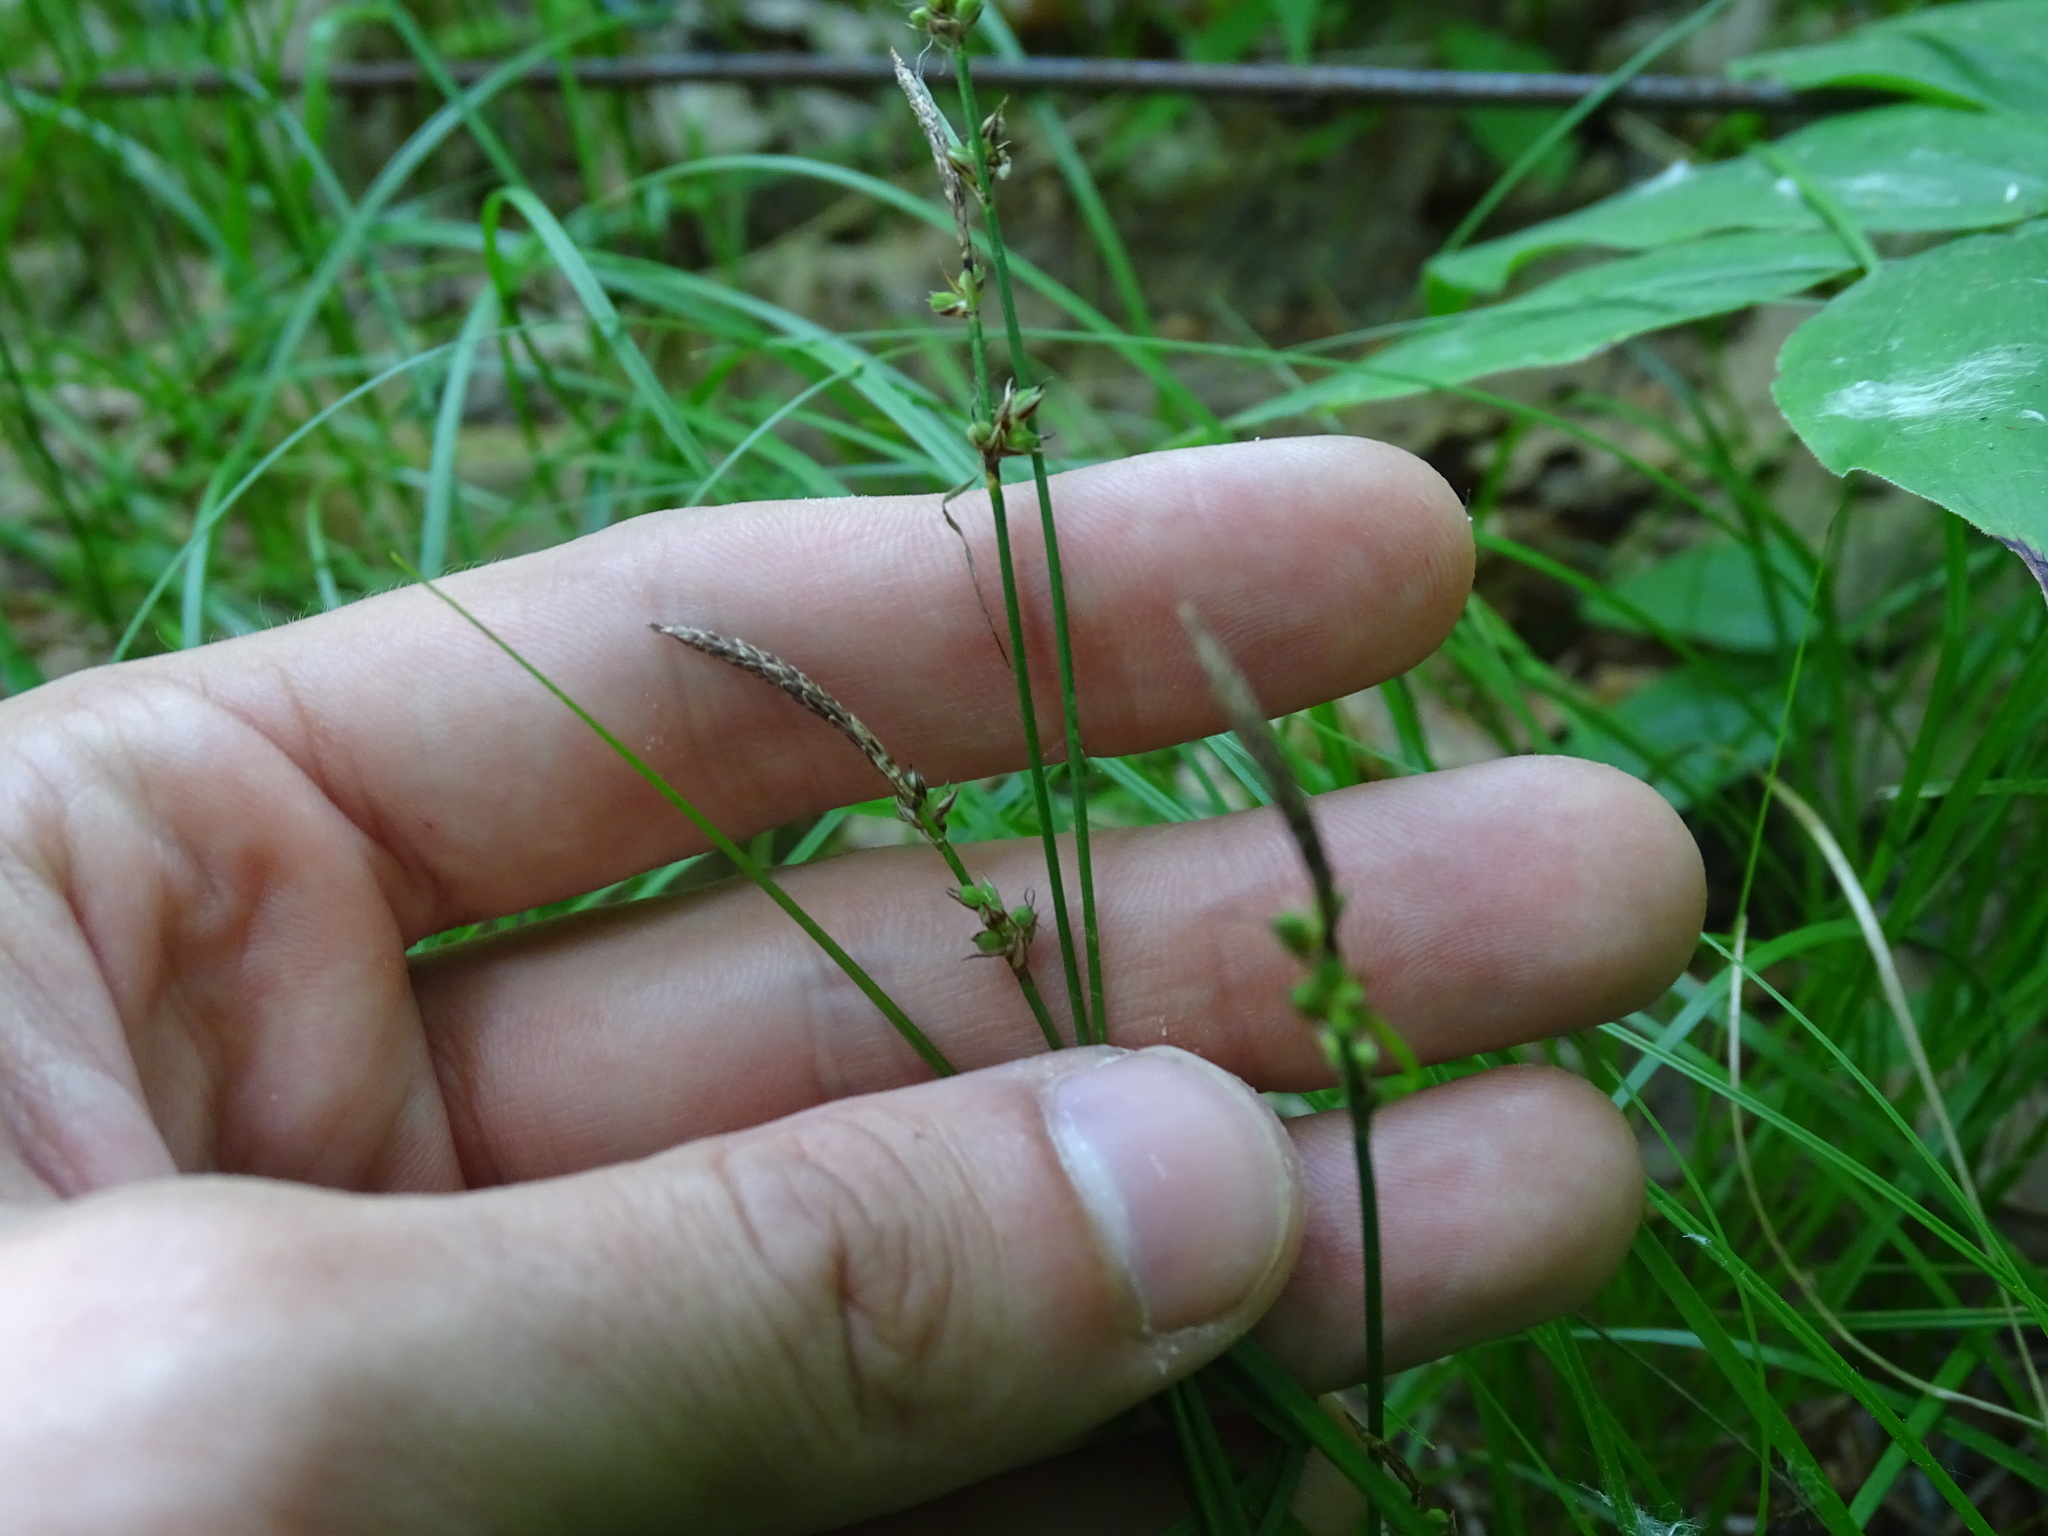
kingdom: Plantae
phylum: Tracheophyta
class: Liliopsida
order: Poales
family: Cyperaceae
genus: Carex
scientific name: Carex pensylvanica
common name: Common oak sedge
